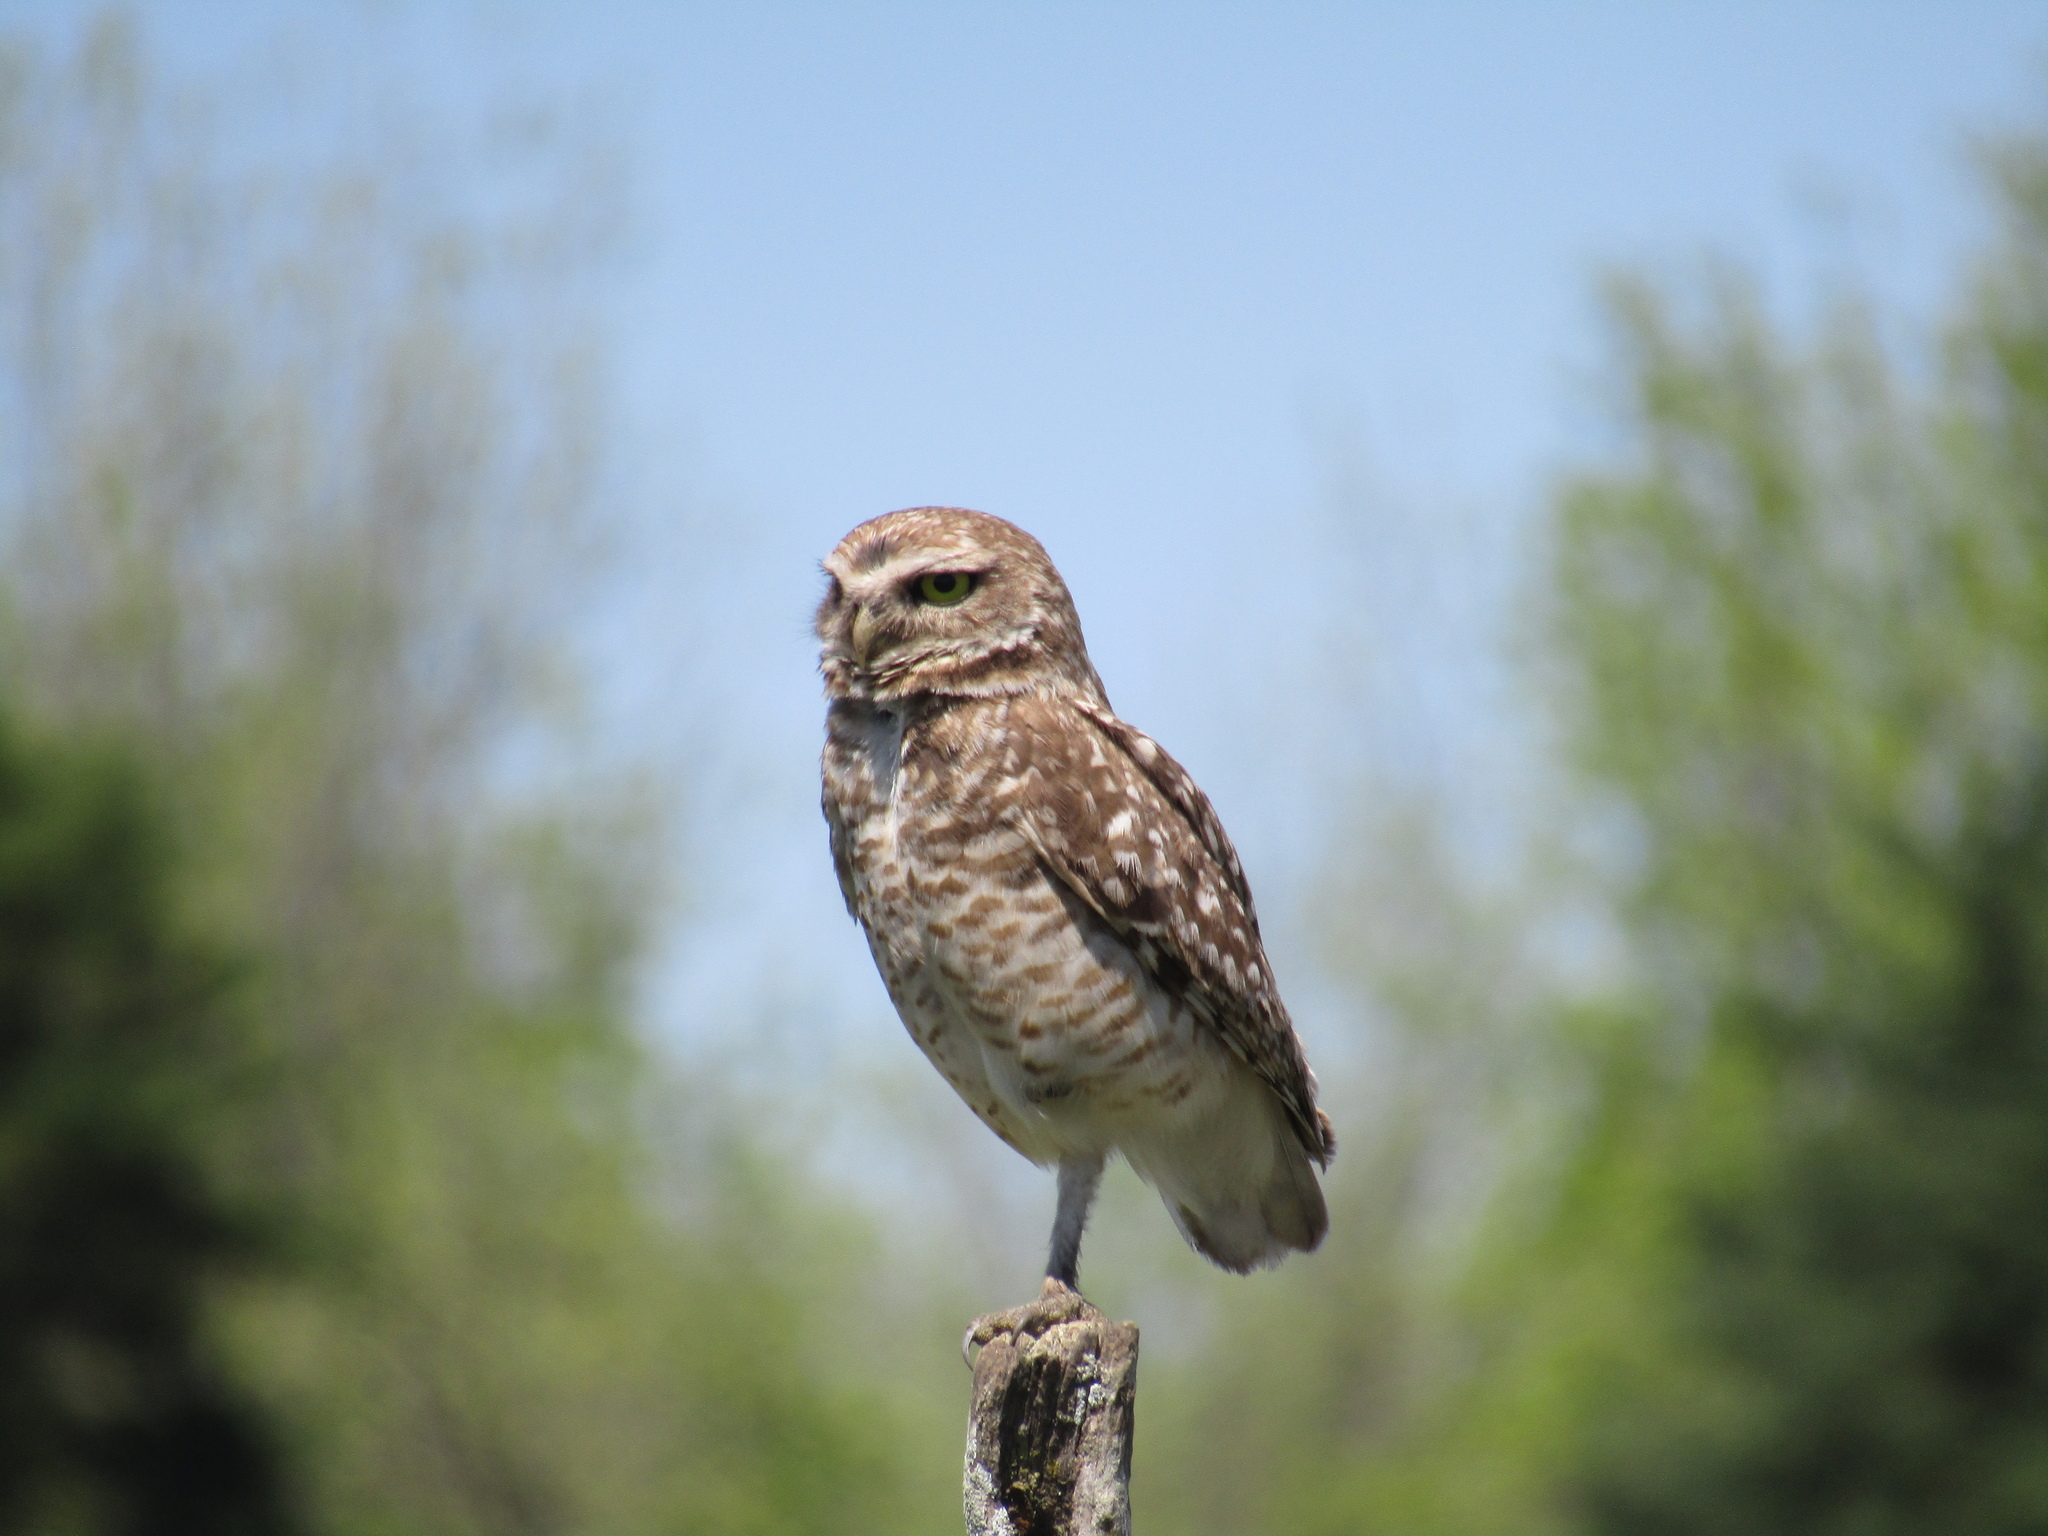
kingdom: Animalia
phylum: Chordata
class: Aves
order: Strigiformes
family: Strigidae
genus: Athene
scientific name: Athene cunicularia
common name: Burrowing owl
